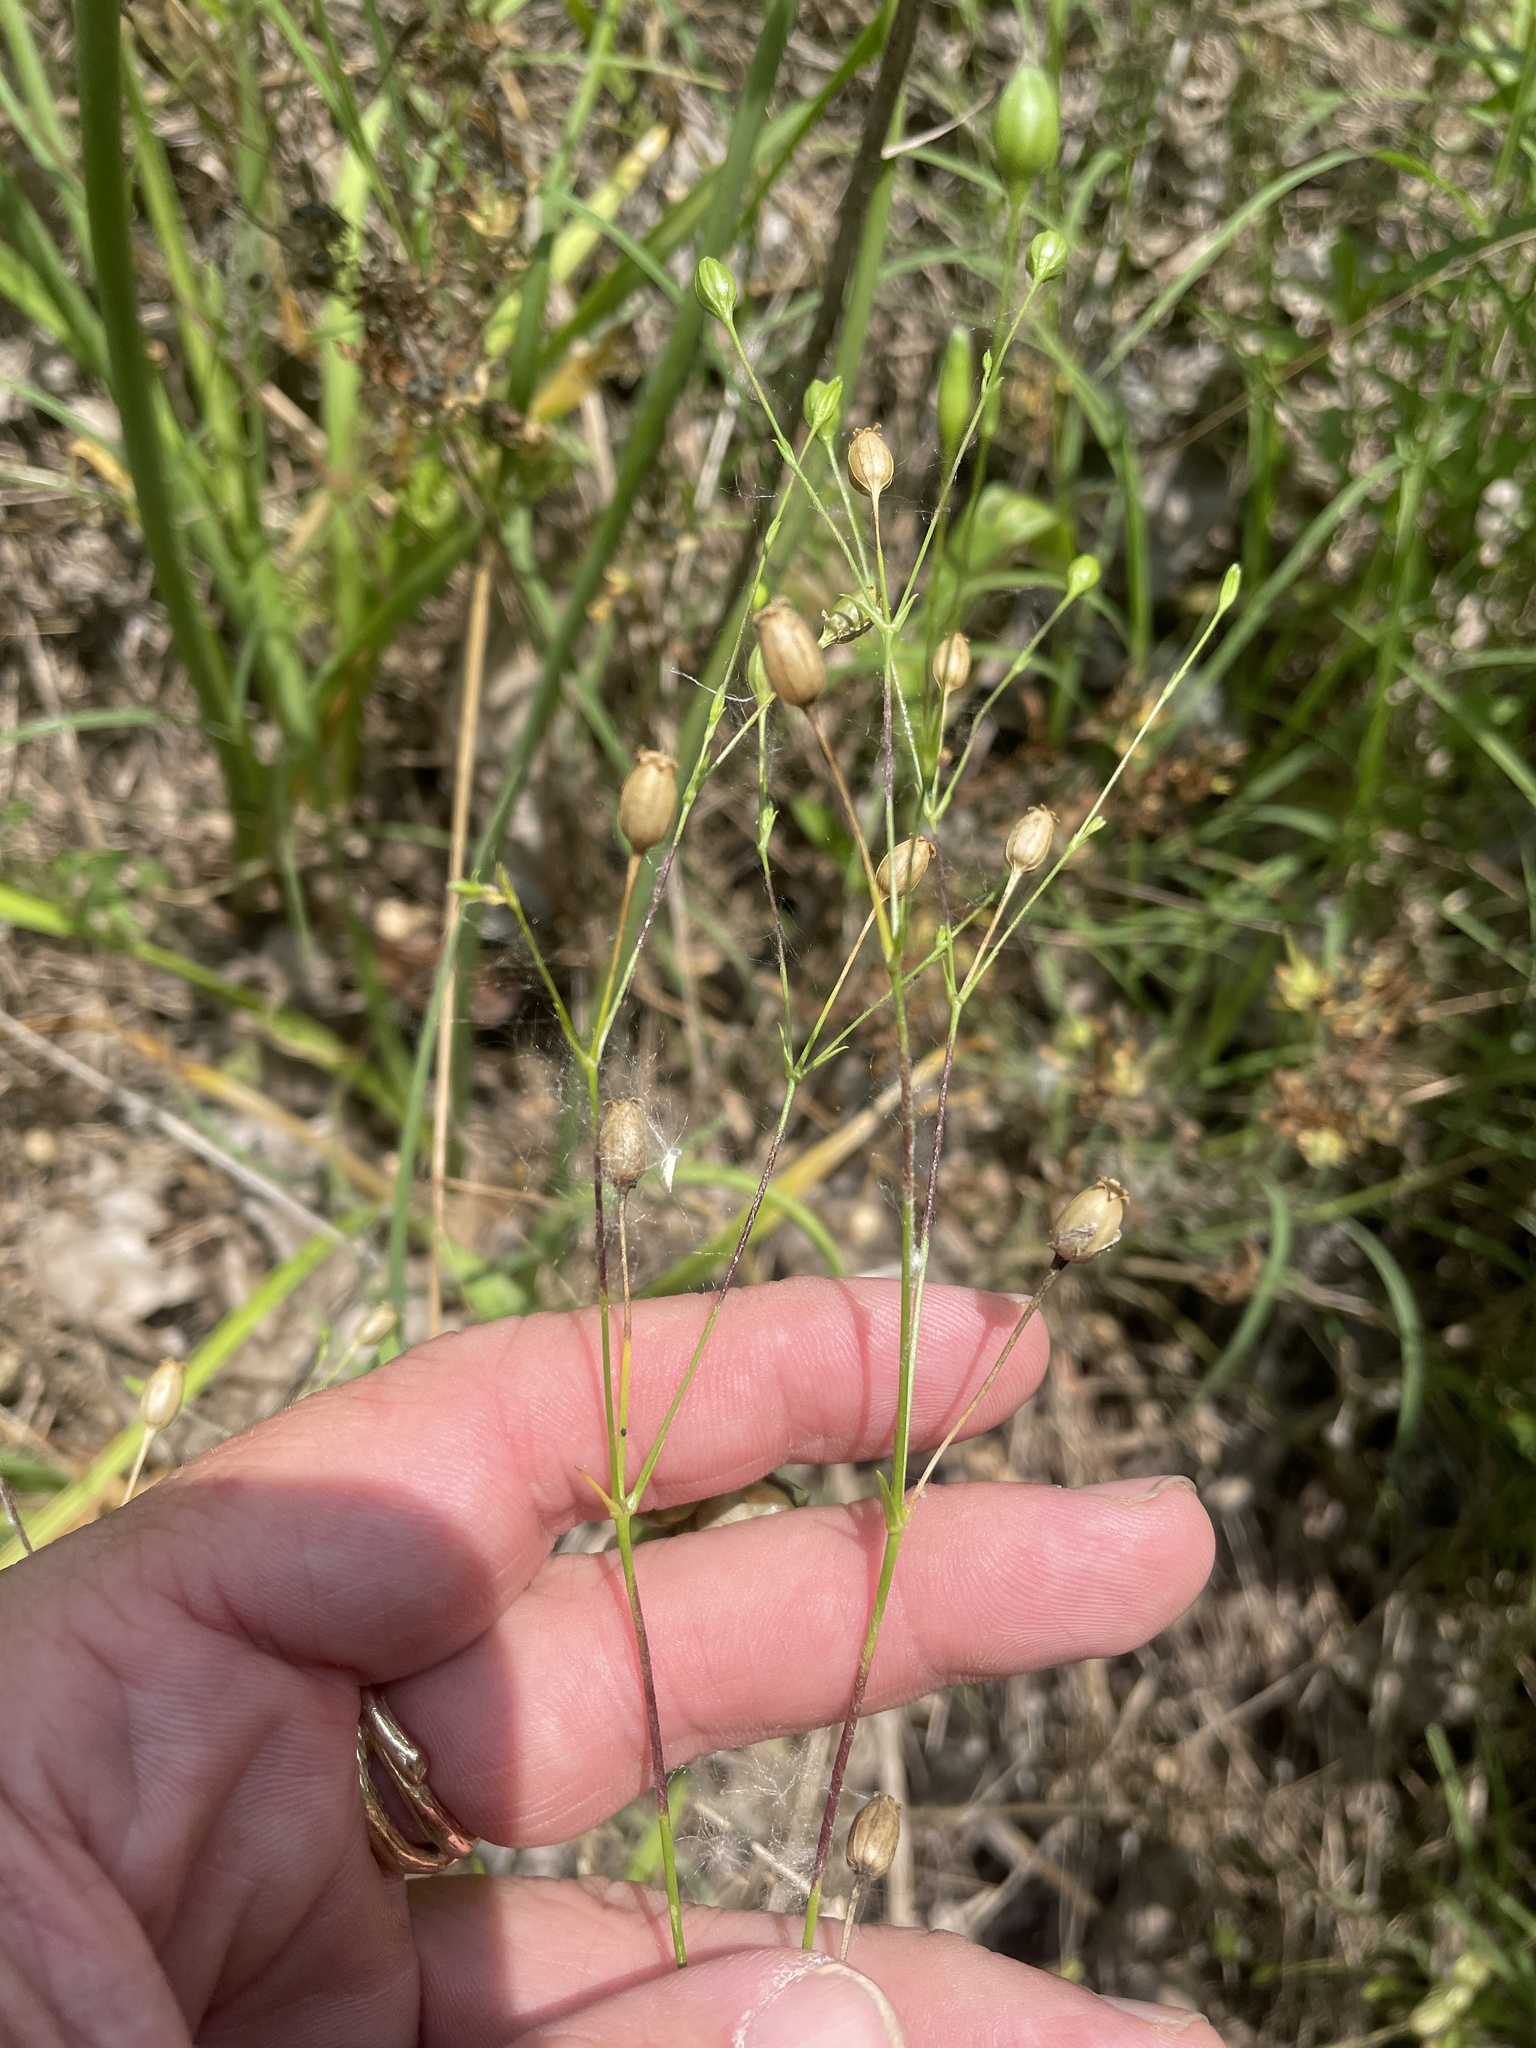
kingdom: Plantae
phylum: Tracheophyta
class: Magnoliopsida
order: Caryophyllales
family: Caryophyllaceae
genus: Silene
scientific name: Silene antirrhina
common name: Sleepy catchfly
